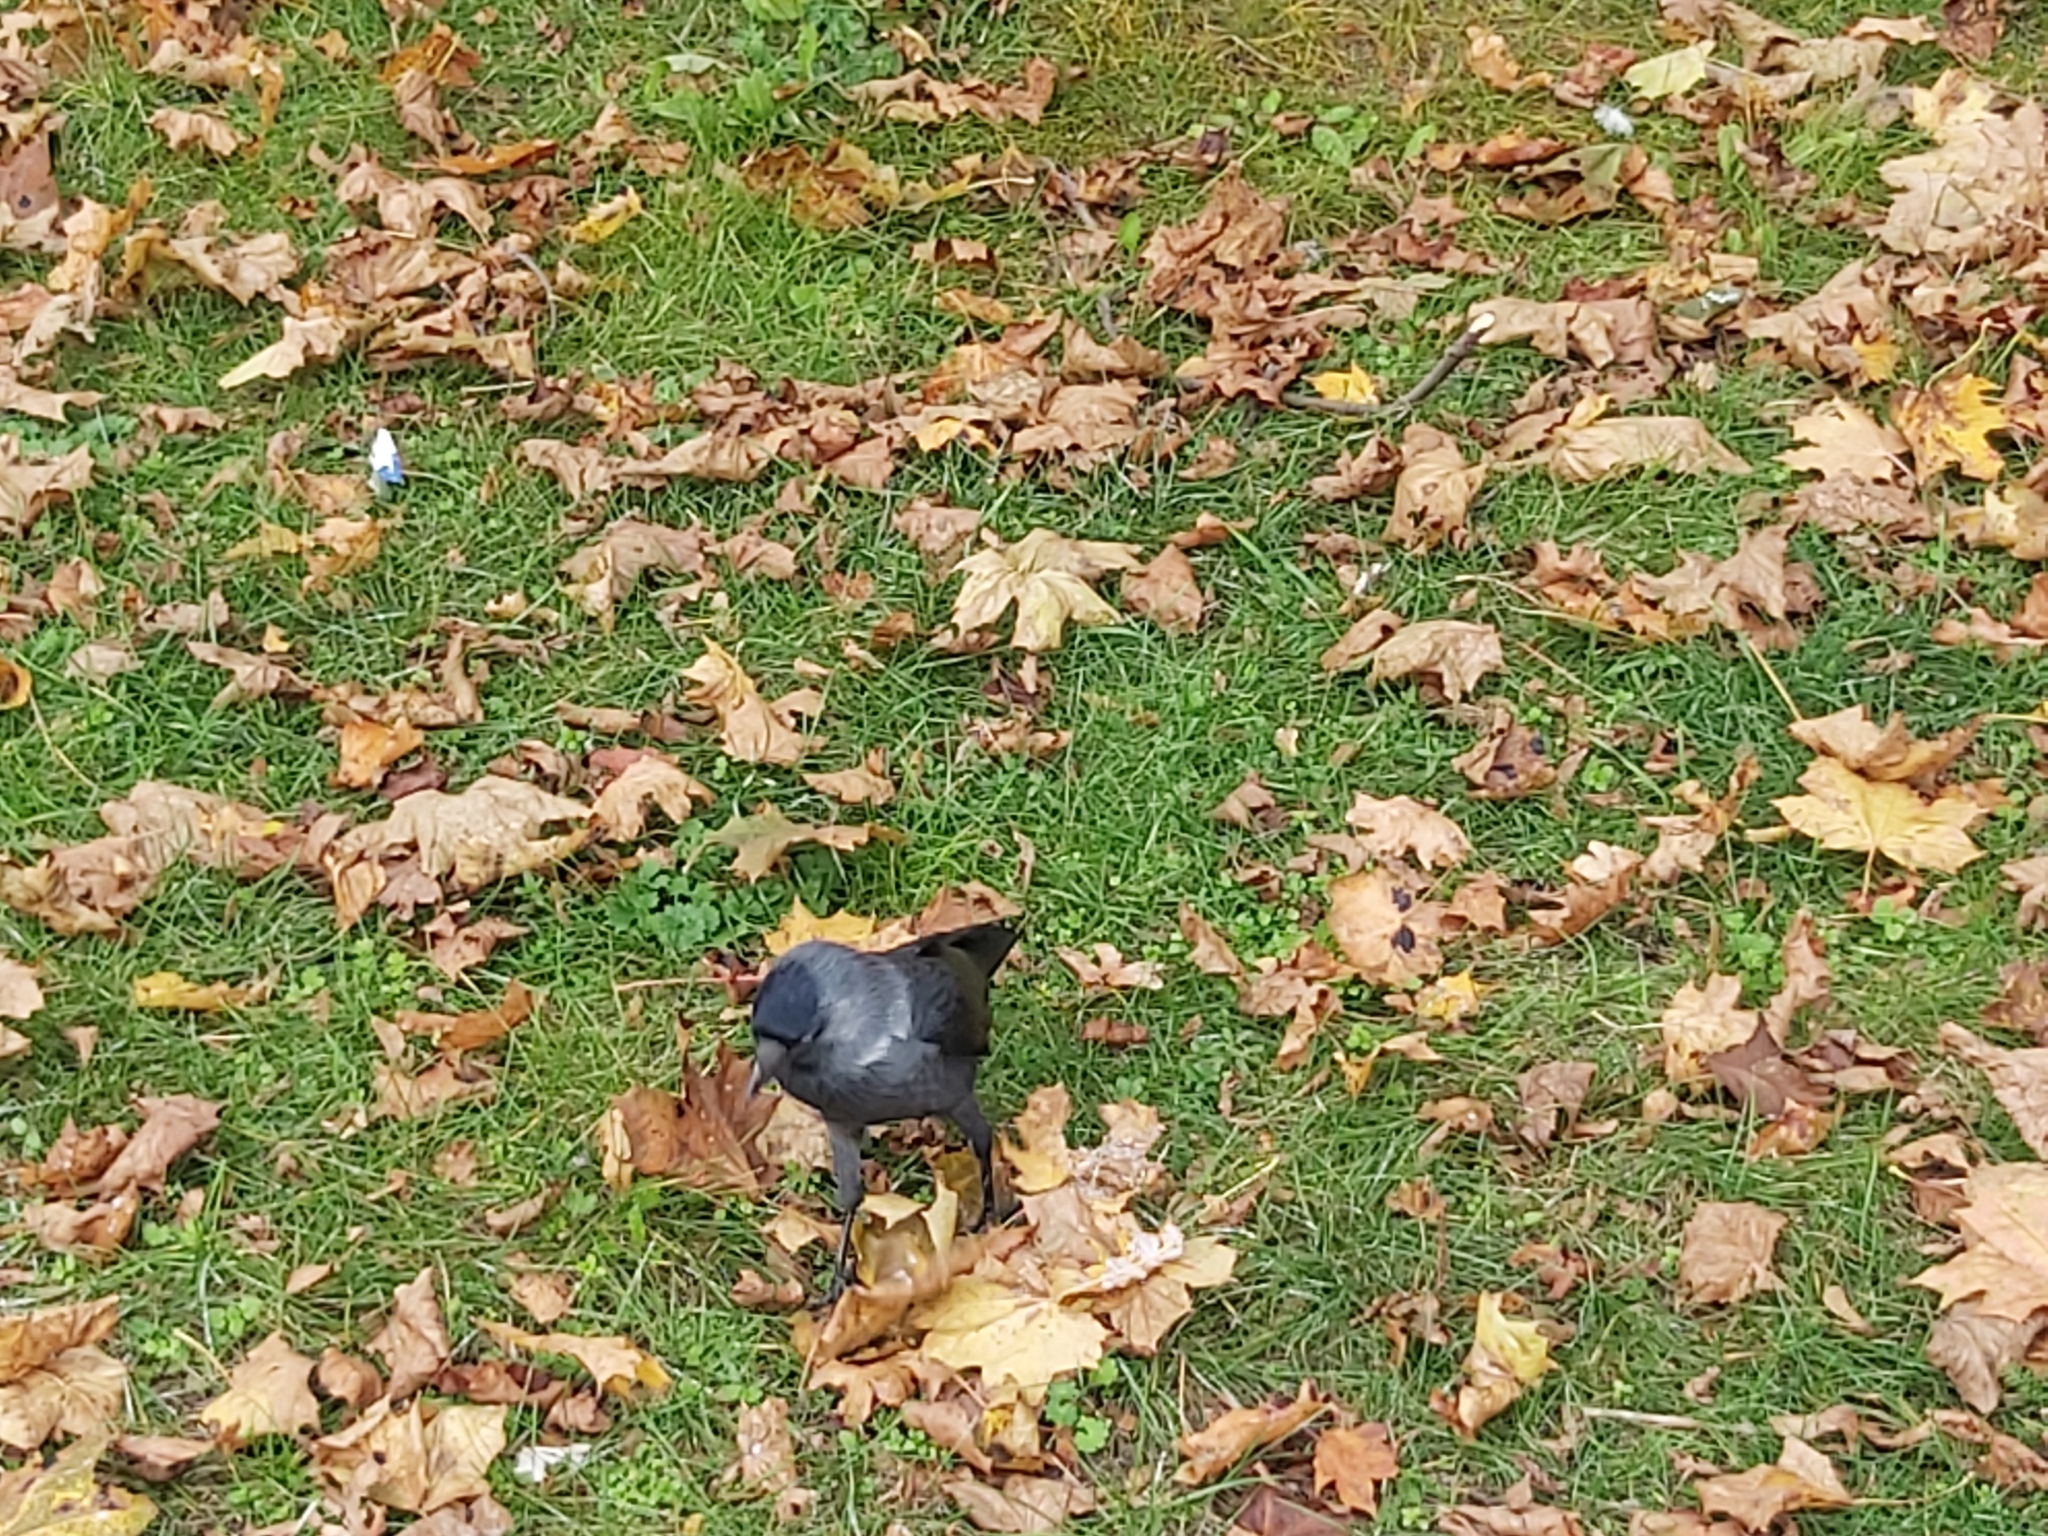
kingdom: Animalia
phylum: Chordata
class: Aves
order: Passeriformes
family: Corvidae
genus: Coloeus
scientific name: Coloeus monedula
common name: Western jackdaw
